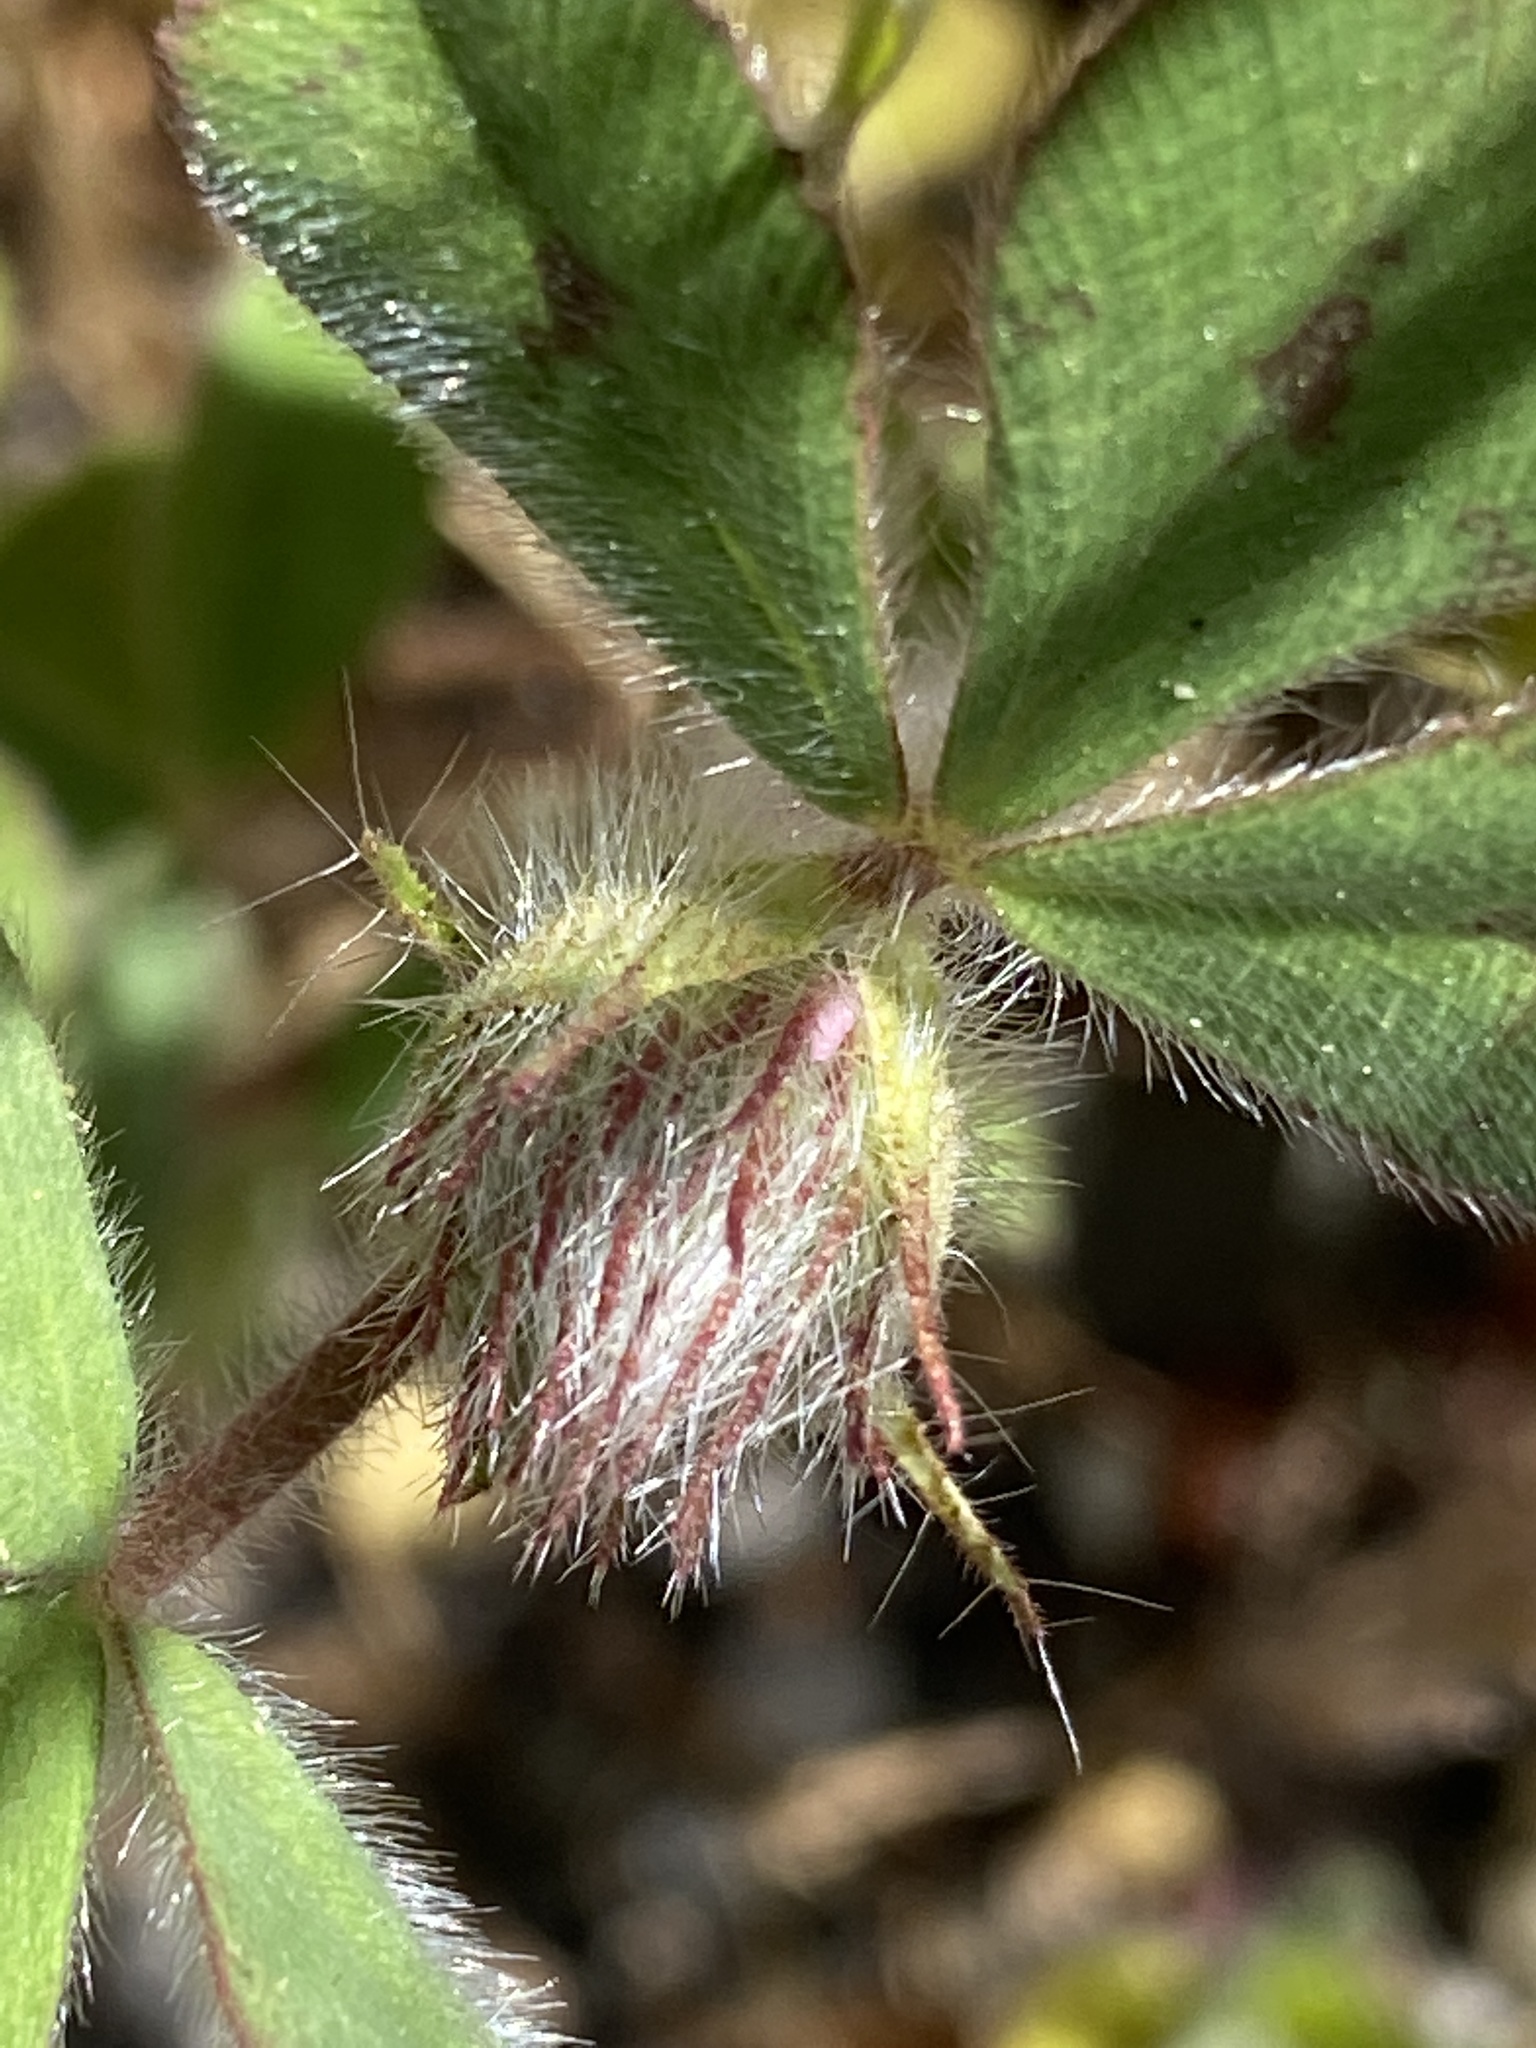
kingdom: Plantae
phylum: Tracheophyta
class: Magnoliopsida
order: Fabales
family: Fabaceae
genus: Trifolium
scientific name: Trifolium hirtum
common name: Rose clover
